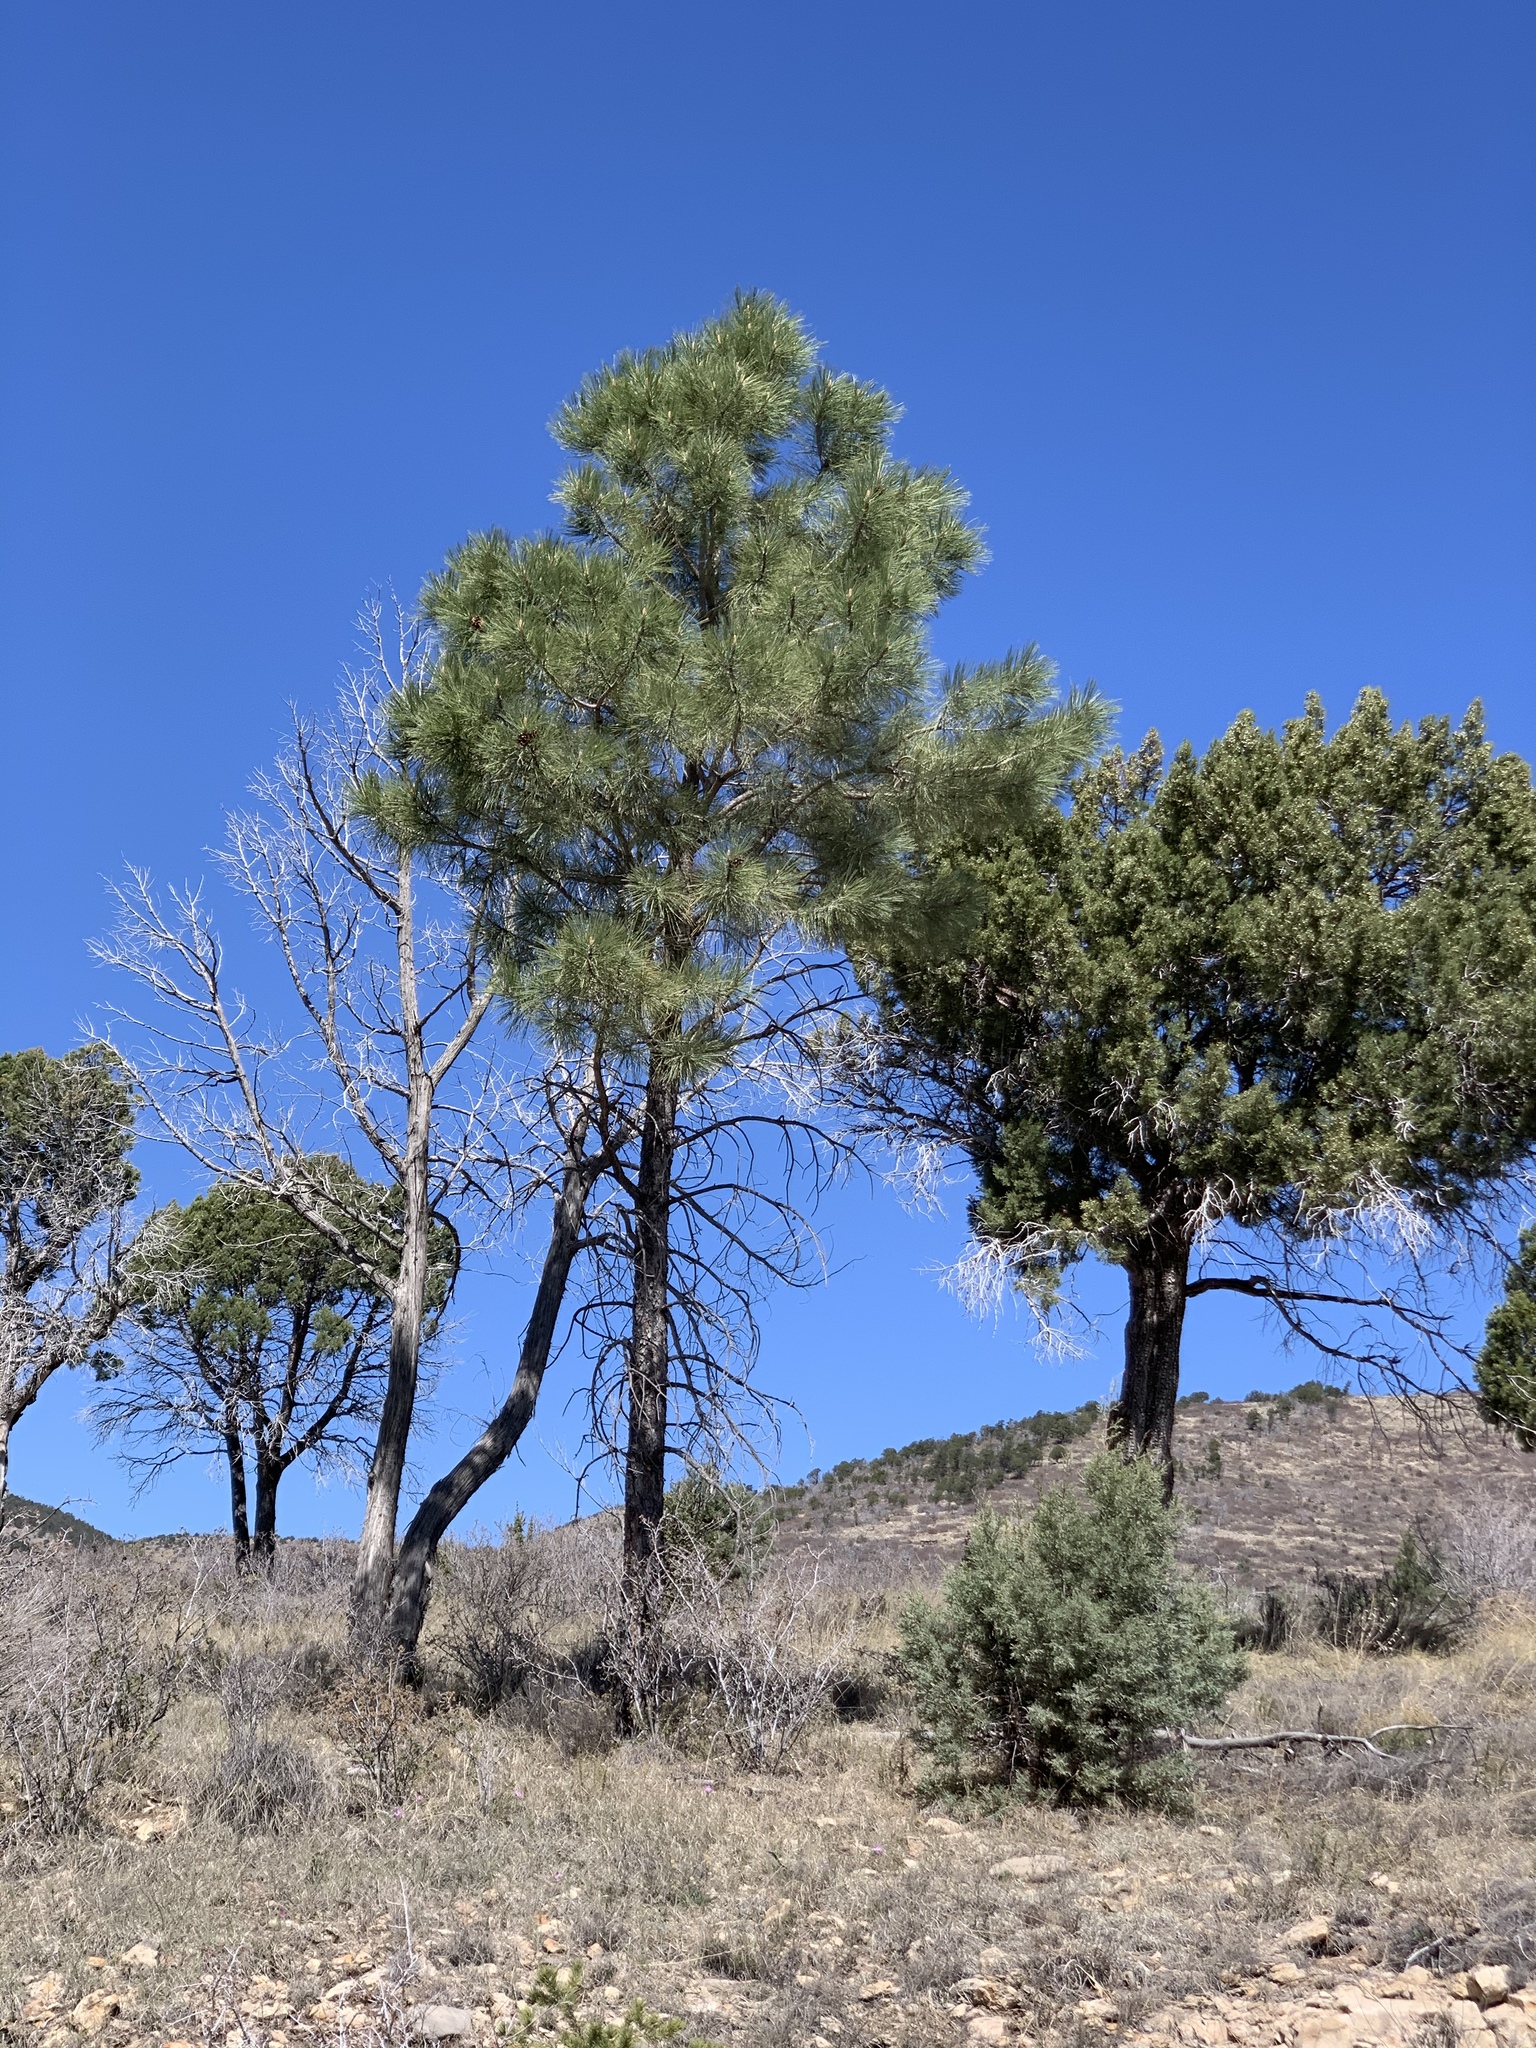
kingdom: Plantae
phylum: Tracheophyta
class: Pinopsida
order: Pinales
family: Pinaceae
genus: Pinus
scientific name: Pinus ponderosa
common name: Western yellow-pine
